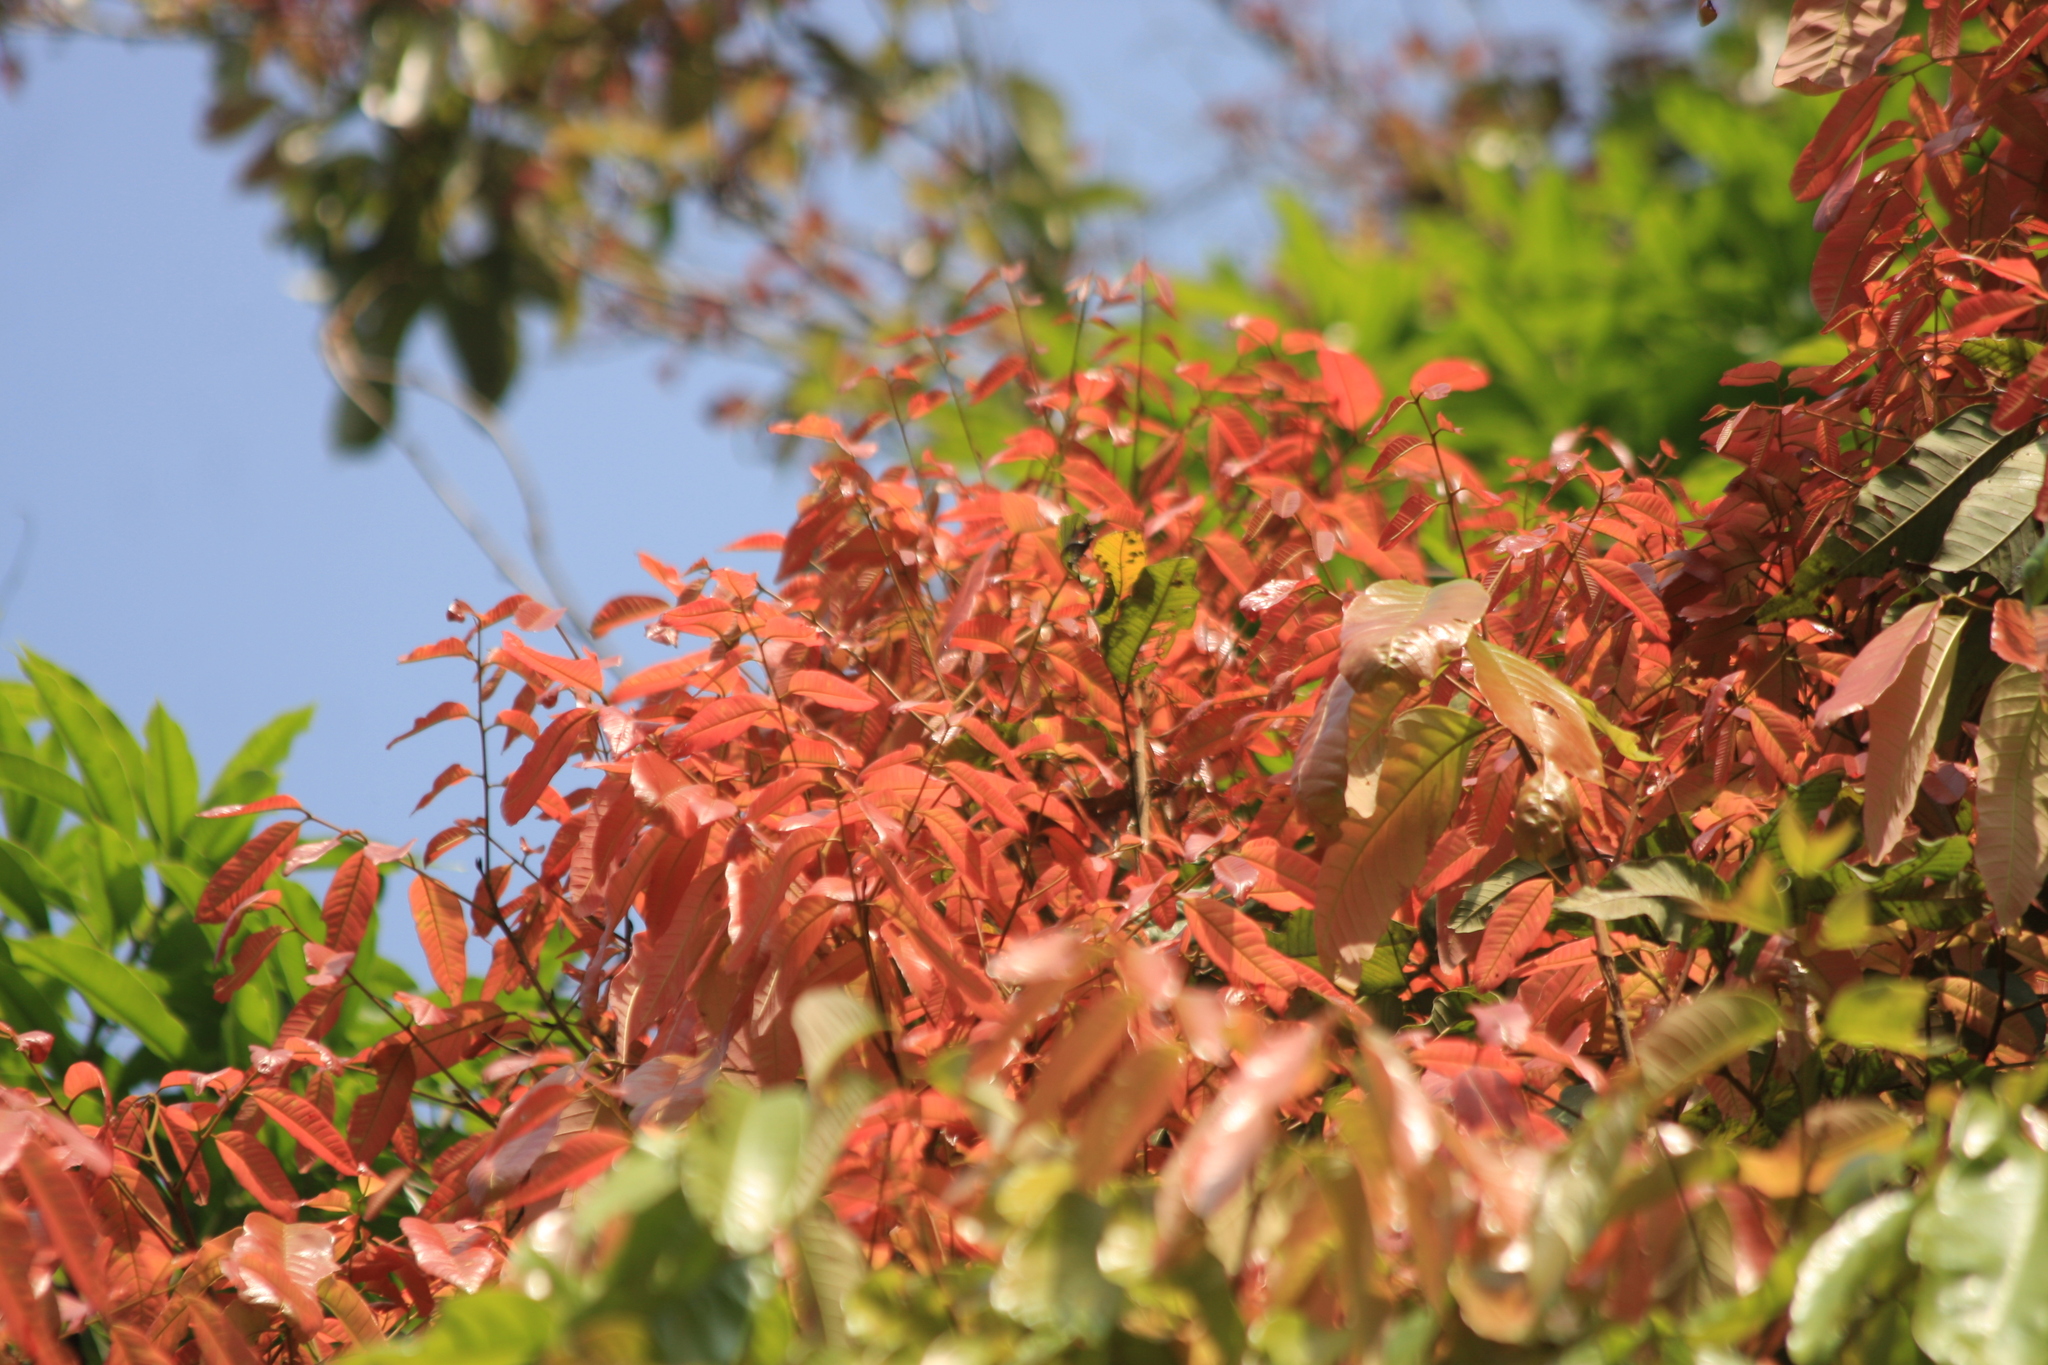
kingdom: Plantae
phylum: Tracheophyta
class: Magnoliopsida
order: Sapindales
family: Sapindaceae
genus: Dimocarpus
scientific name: Dimocarpus longan
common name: Longan
